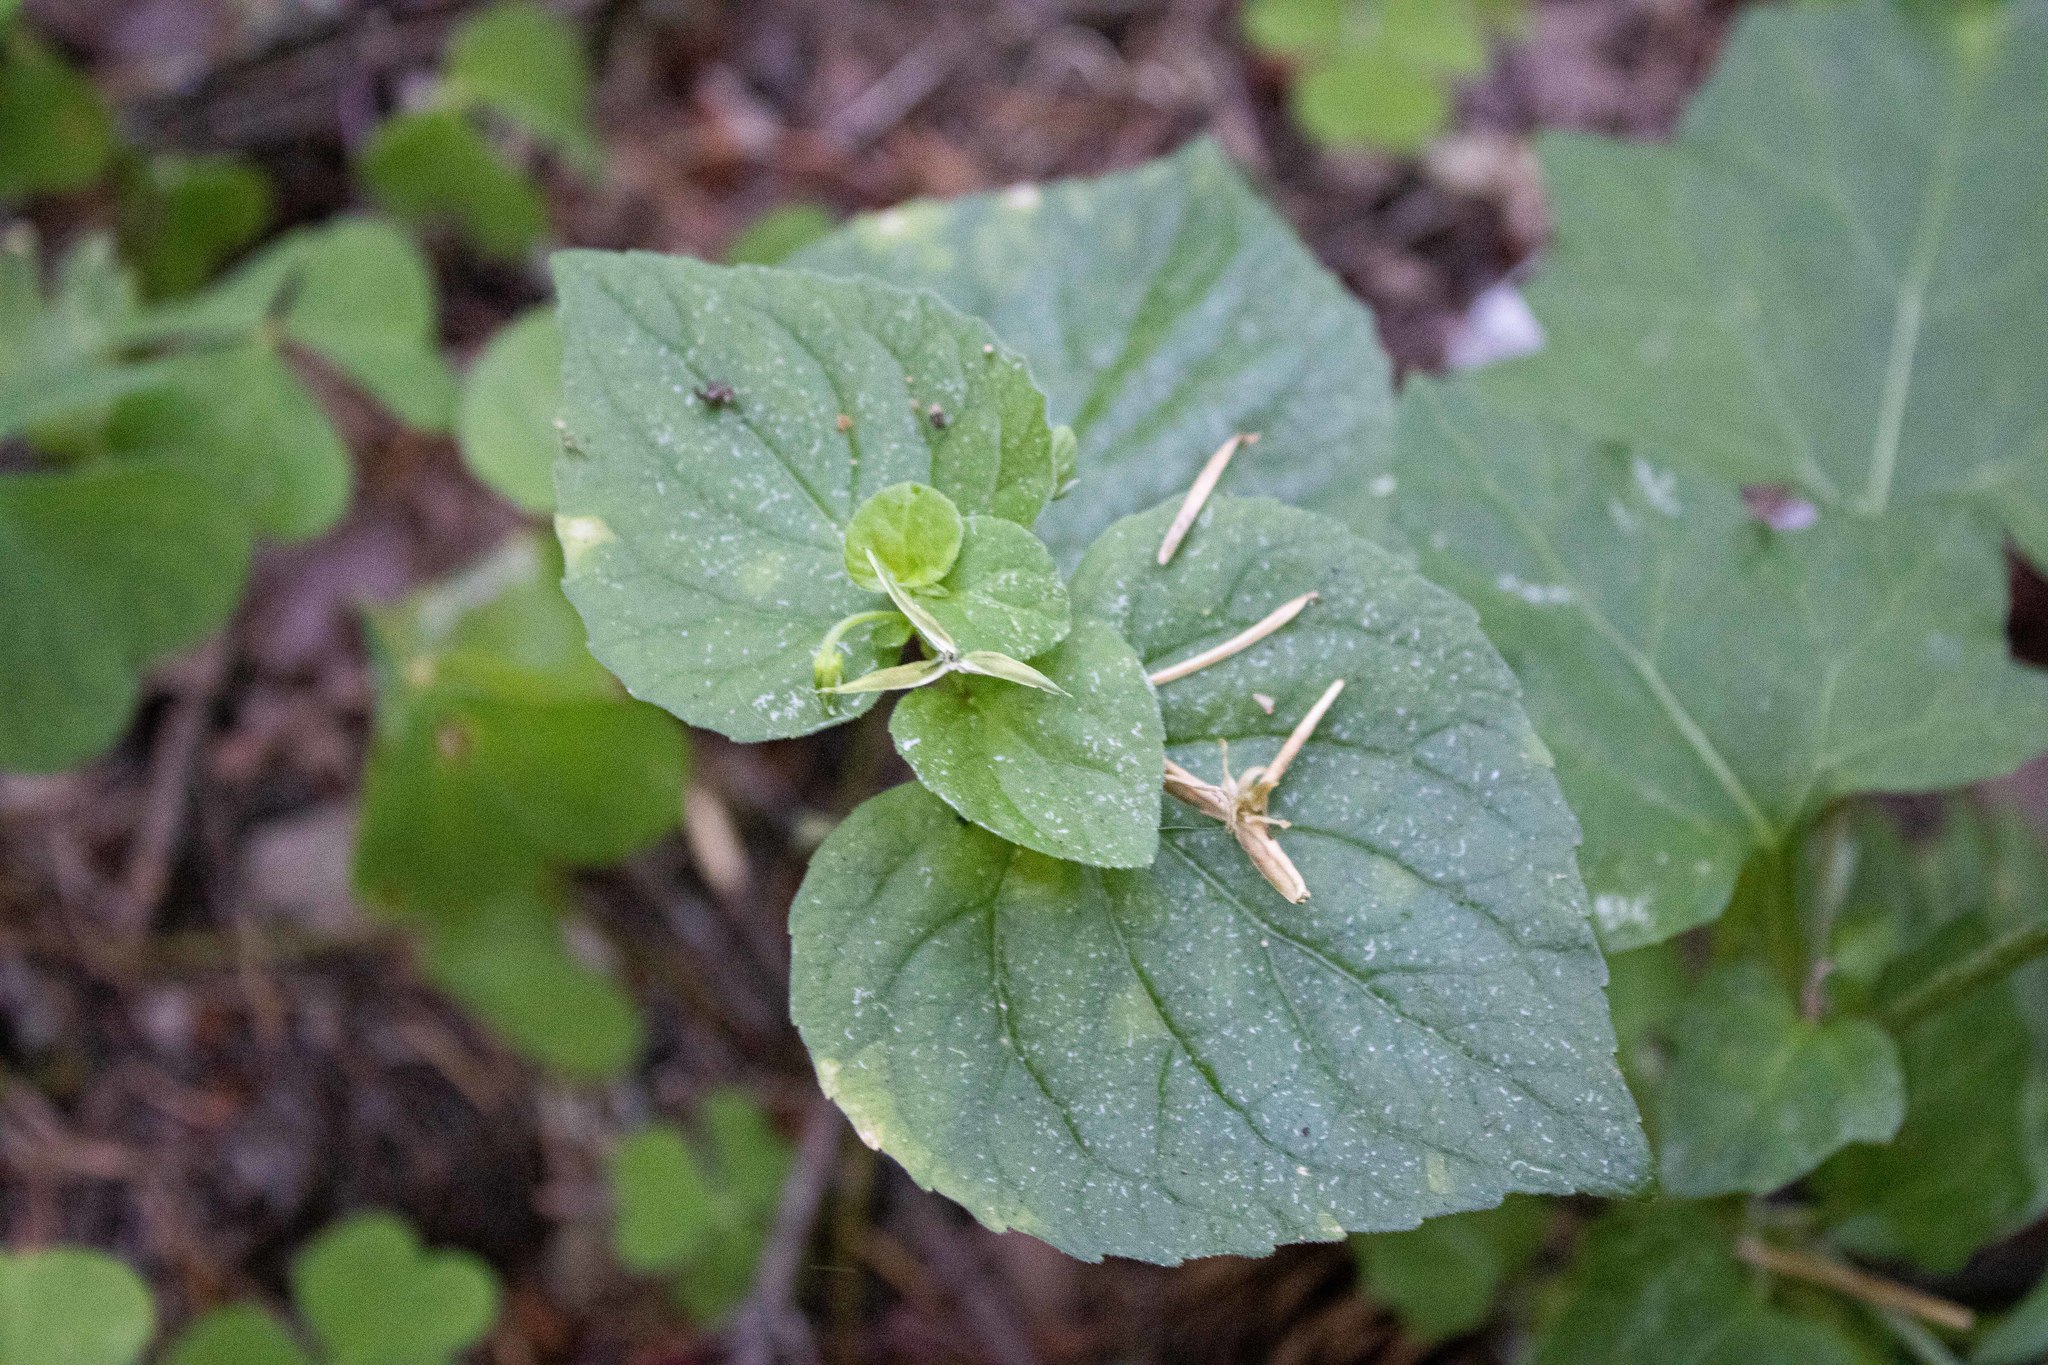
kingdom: Plantae
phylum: Tracheophyta
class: Magnoliopsida
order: Malpighiales
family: Violaceae
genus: Viola
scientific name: Viola glabella
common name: Stream violet
